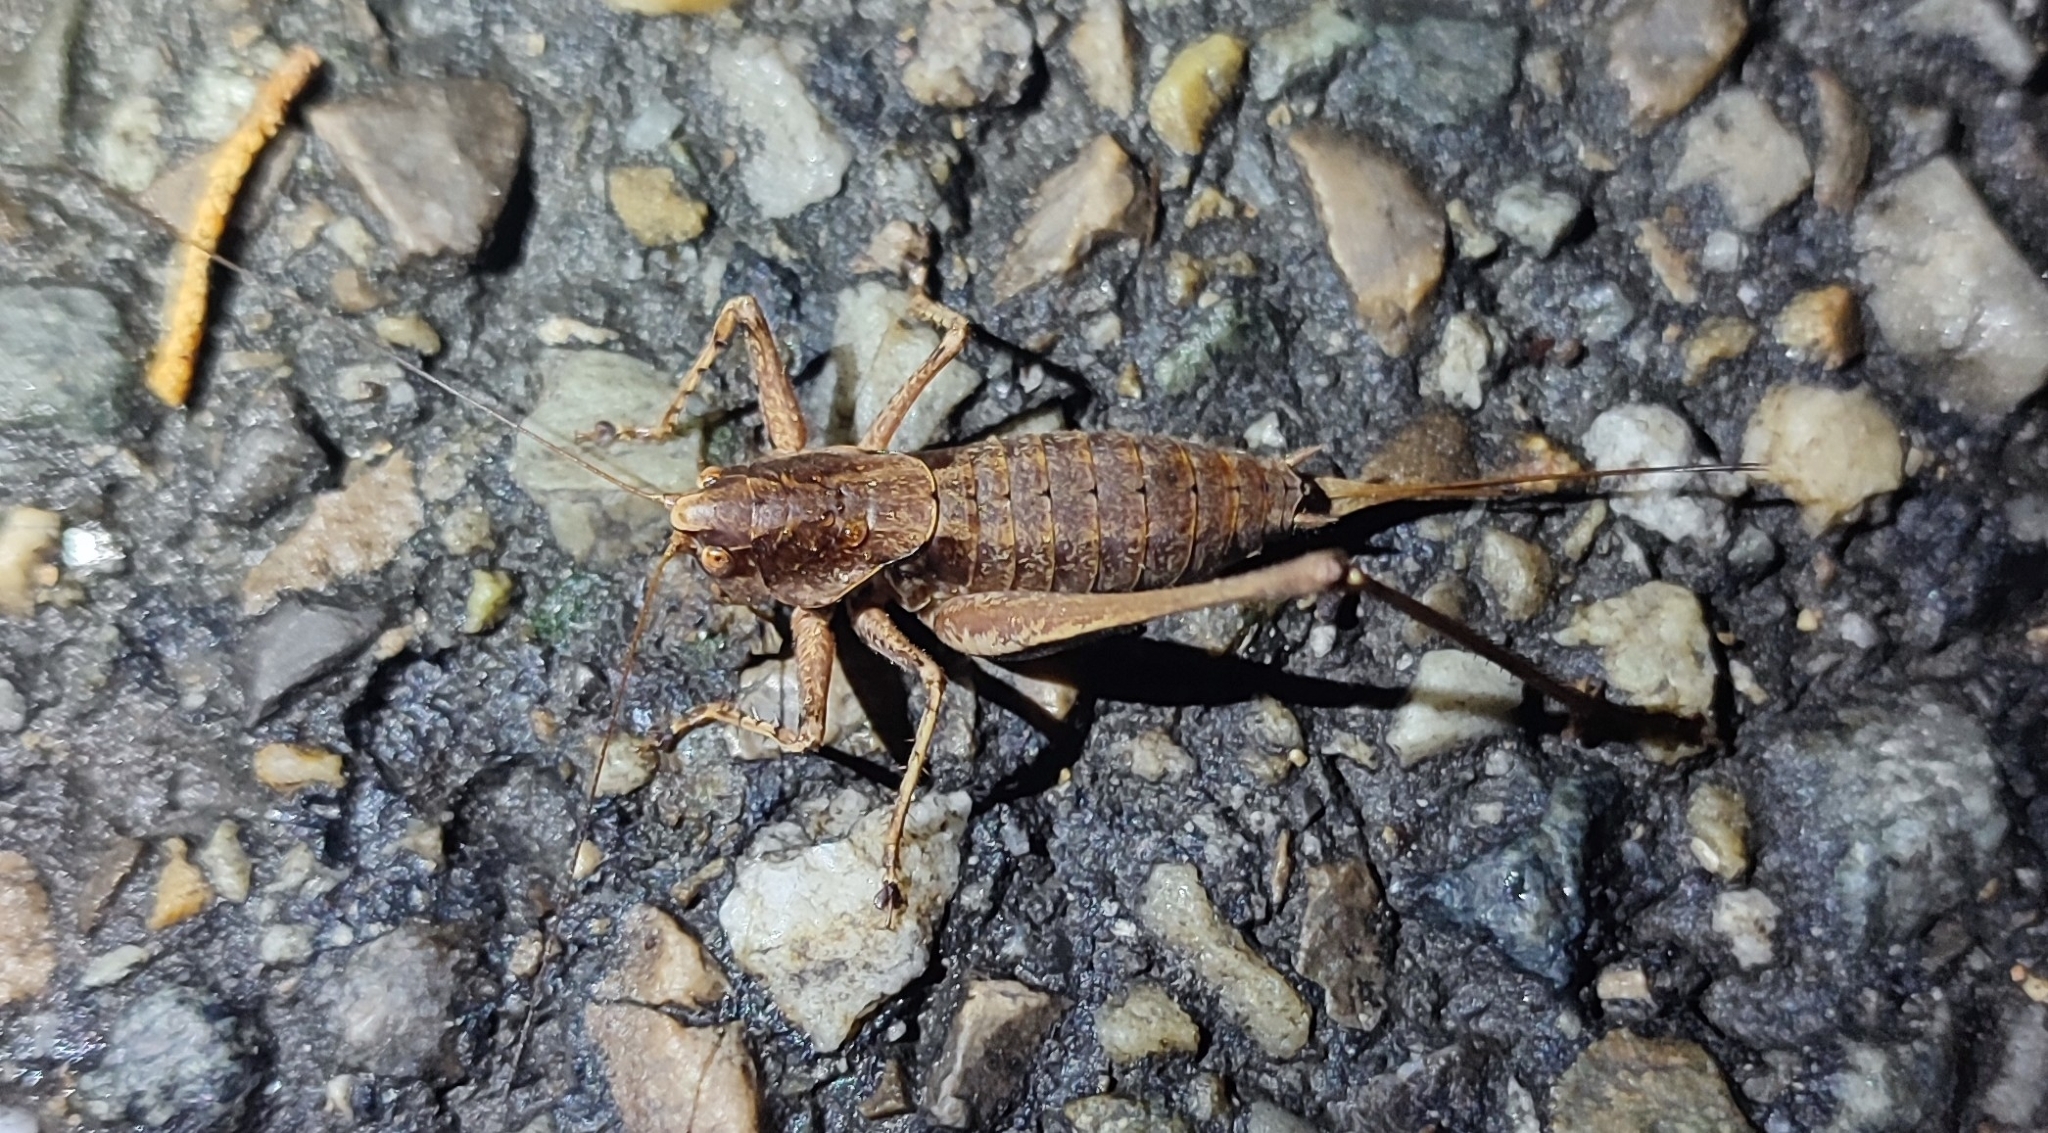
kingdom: Animalia
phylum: Arthropoda
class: Insecta
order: Orthoptera
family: Tettigoniidae
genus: Rhacocleis
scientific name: Rhacocleis poneli
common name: Ponel's bush-cricket
